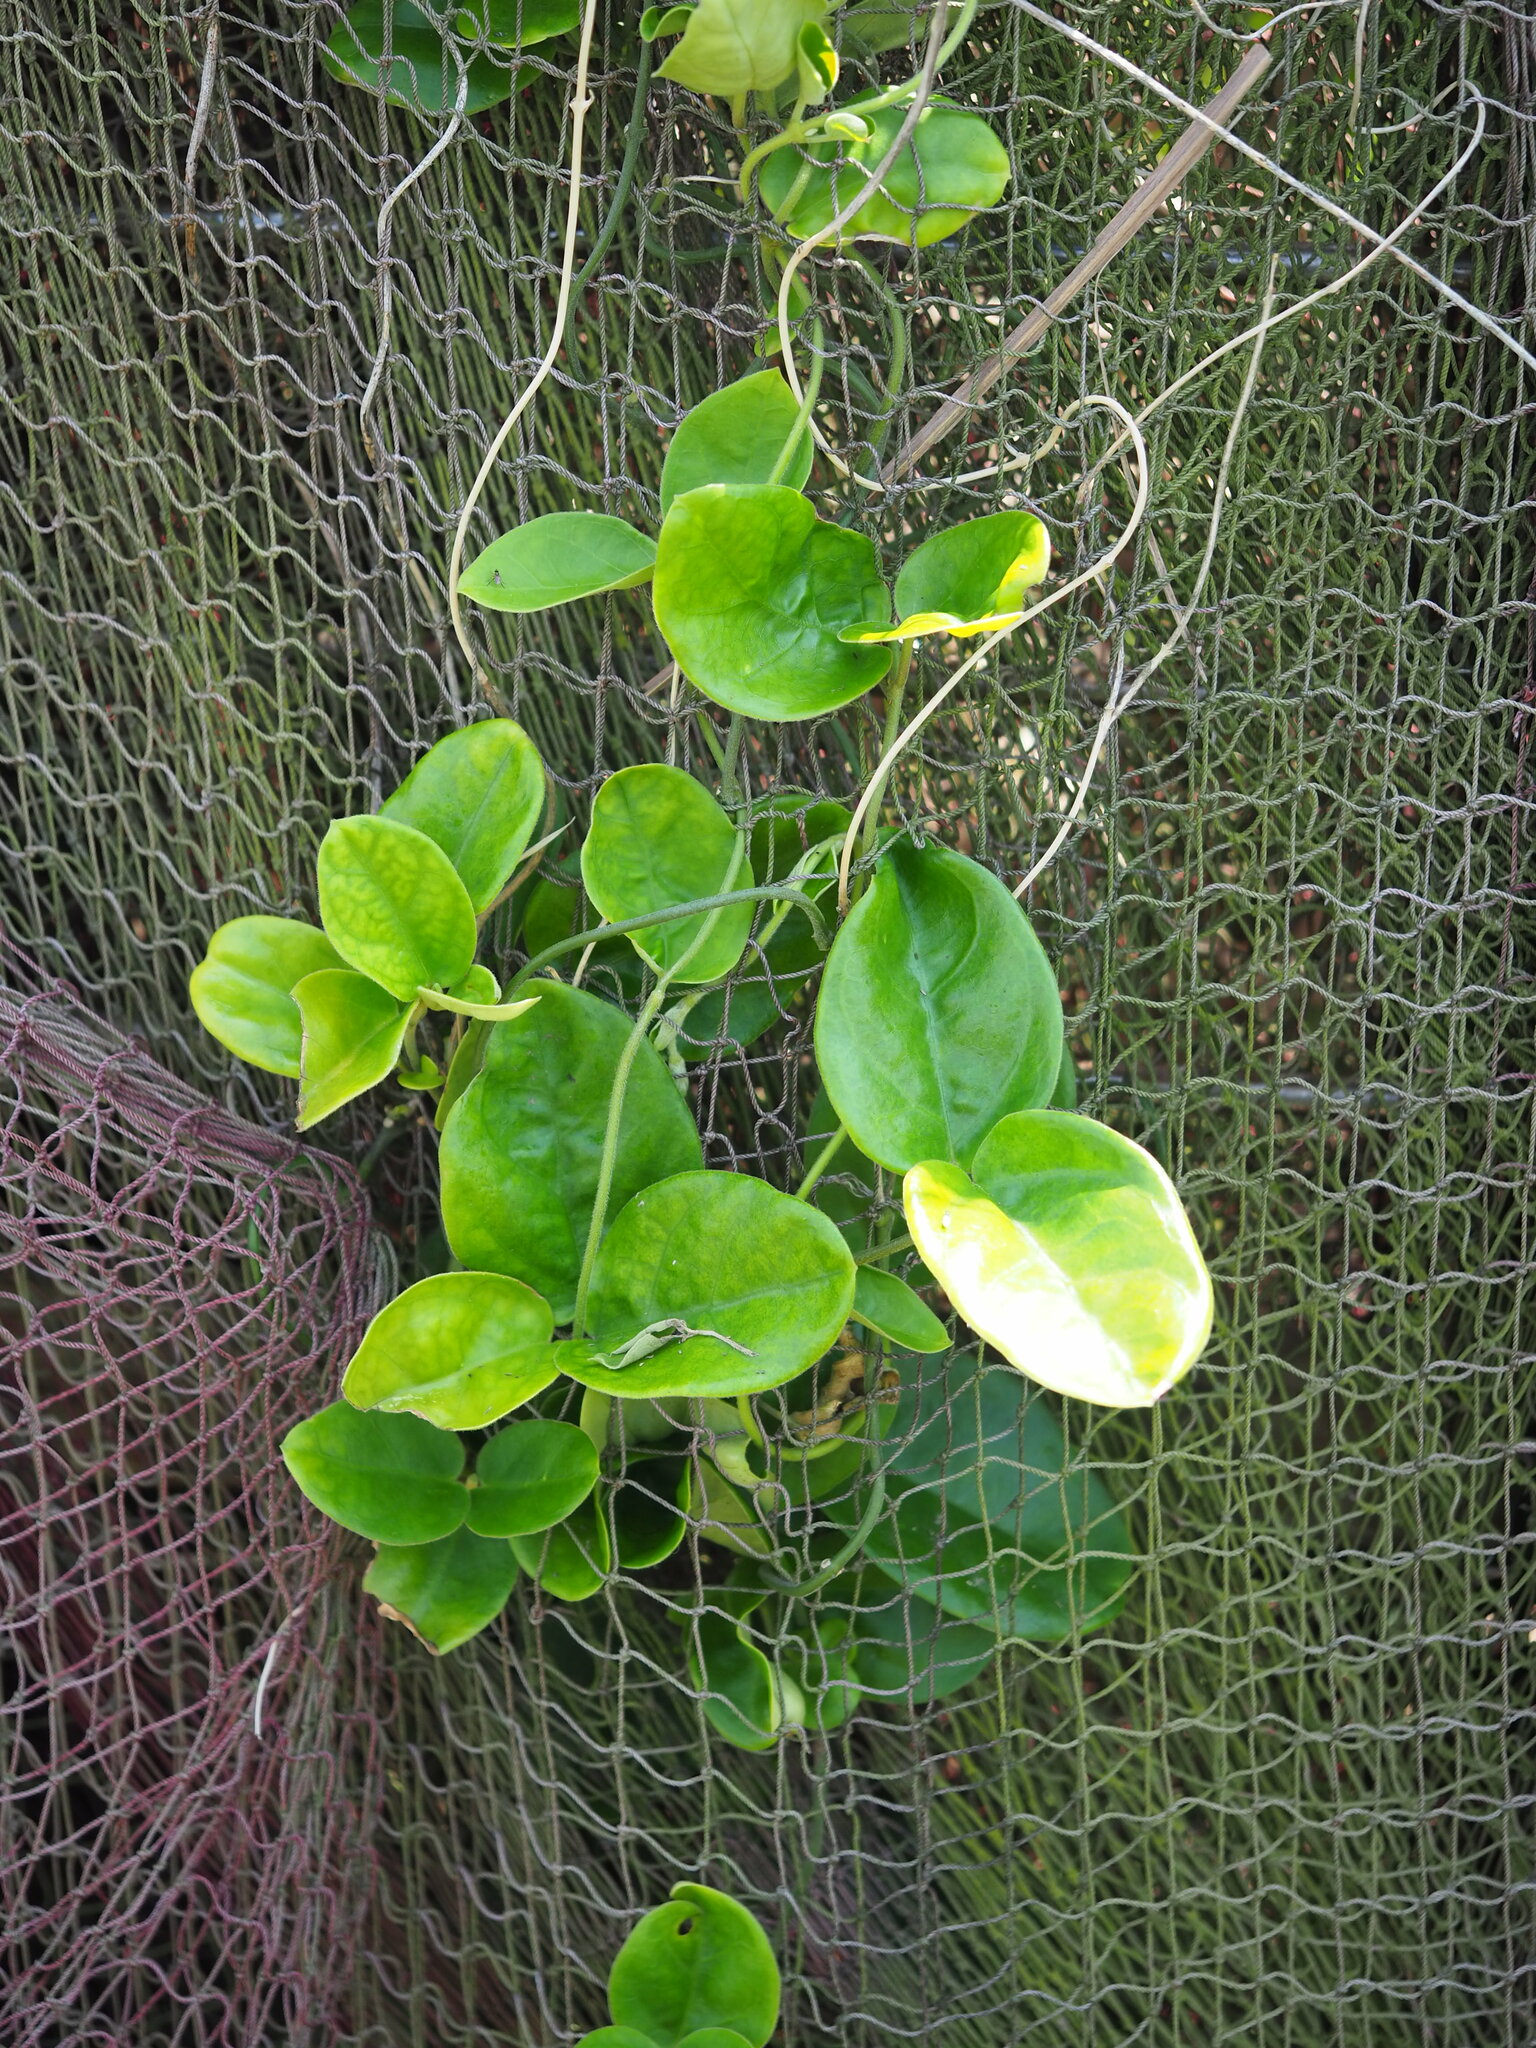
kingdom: Plantae
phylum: Tracheophyta
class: Magnoliopsida
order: Gentianales
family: Apocynaceae
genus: Vincetoxicum
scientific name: Vincetoxicum hirsutum
